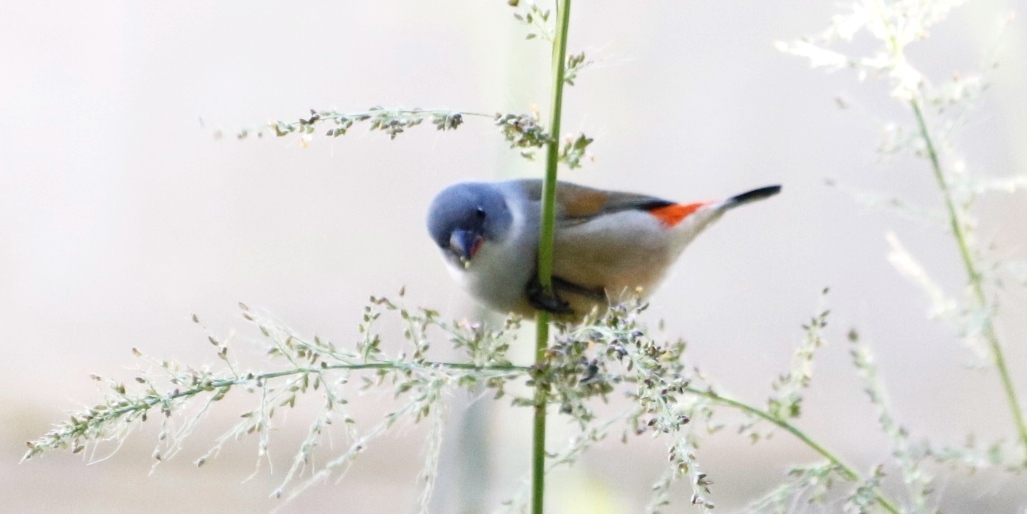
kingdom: Animalia
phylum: Chordata
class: Aves
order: Passeriformes
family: Estrildidae
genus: Coccopygia
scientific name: Coccopygia melanotis
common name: Swee waxbill
